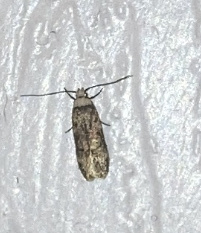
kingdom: Animalia
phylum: Arthropoda
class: Insecta
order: Lepidoptera
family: Oecophoridae
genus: Endrosis
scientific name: Endrosis sarcitrella
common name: White-shouldered house moth
